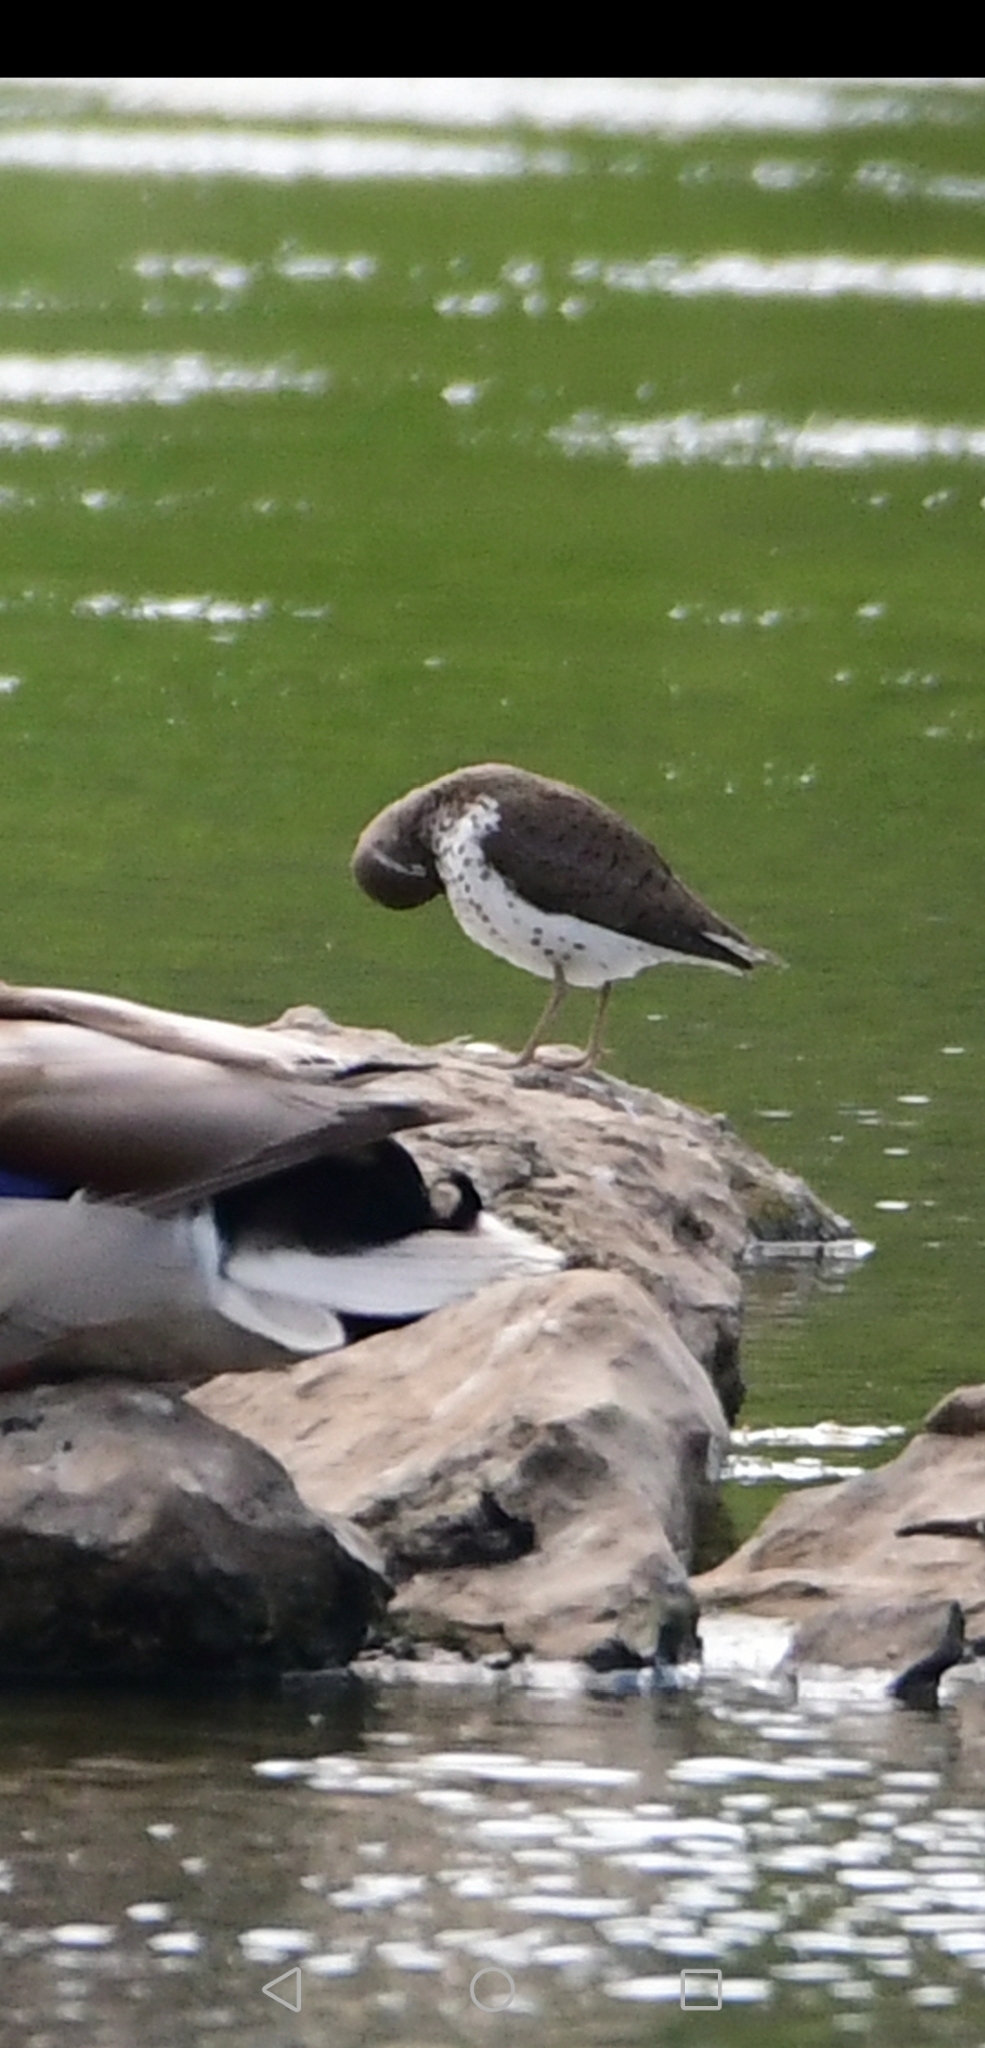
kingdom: Animalia
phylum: Chordata
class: Aves
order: Charadriiformes
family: Scolopacidae
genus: Actitis
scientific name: Actitis macularius
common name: Spotted sandpiper
